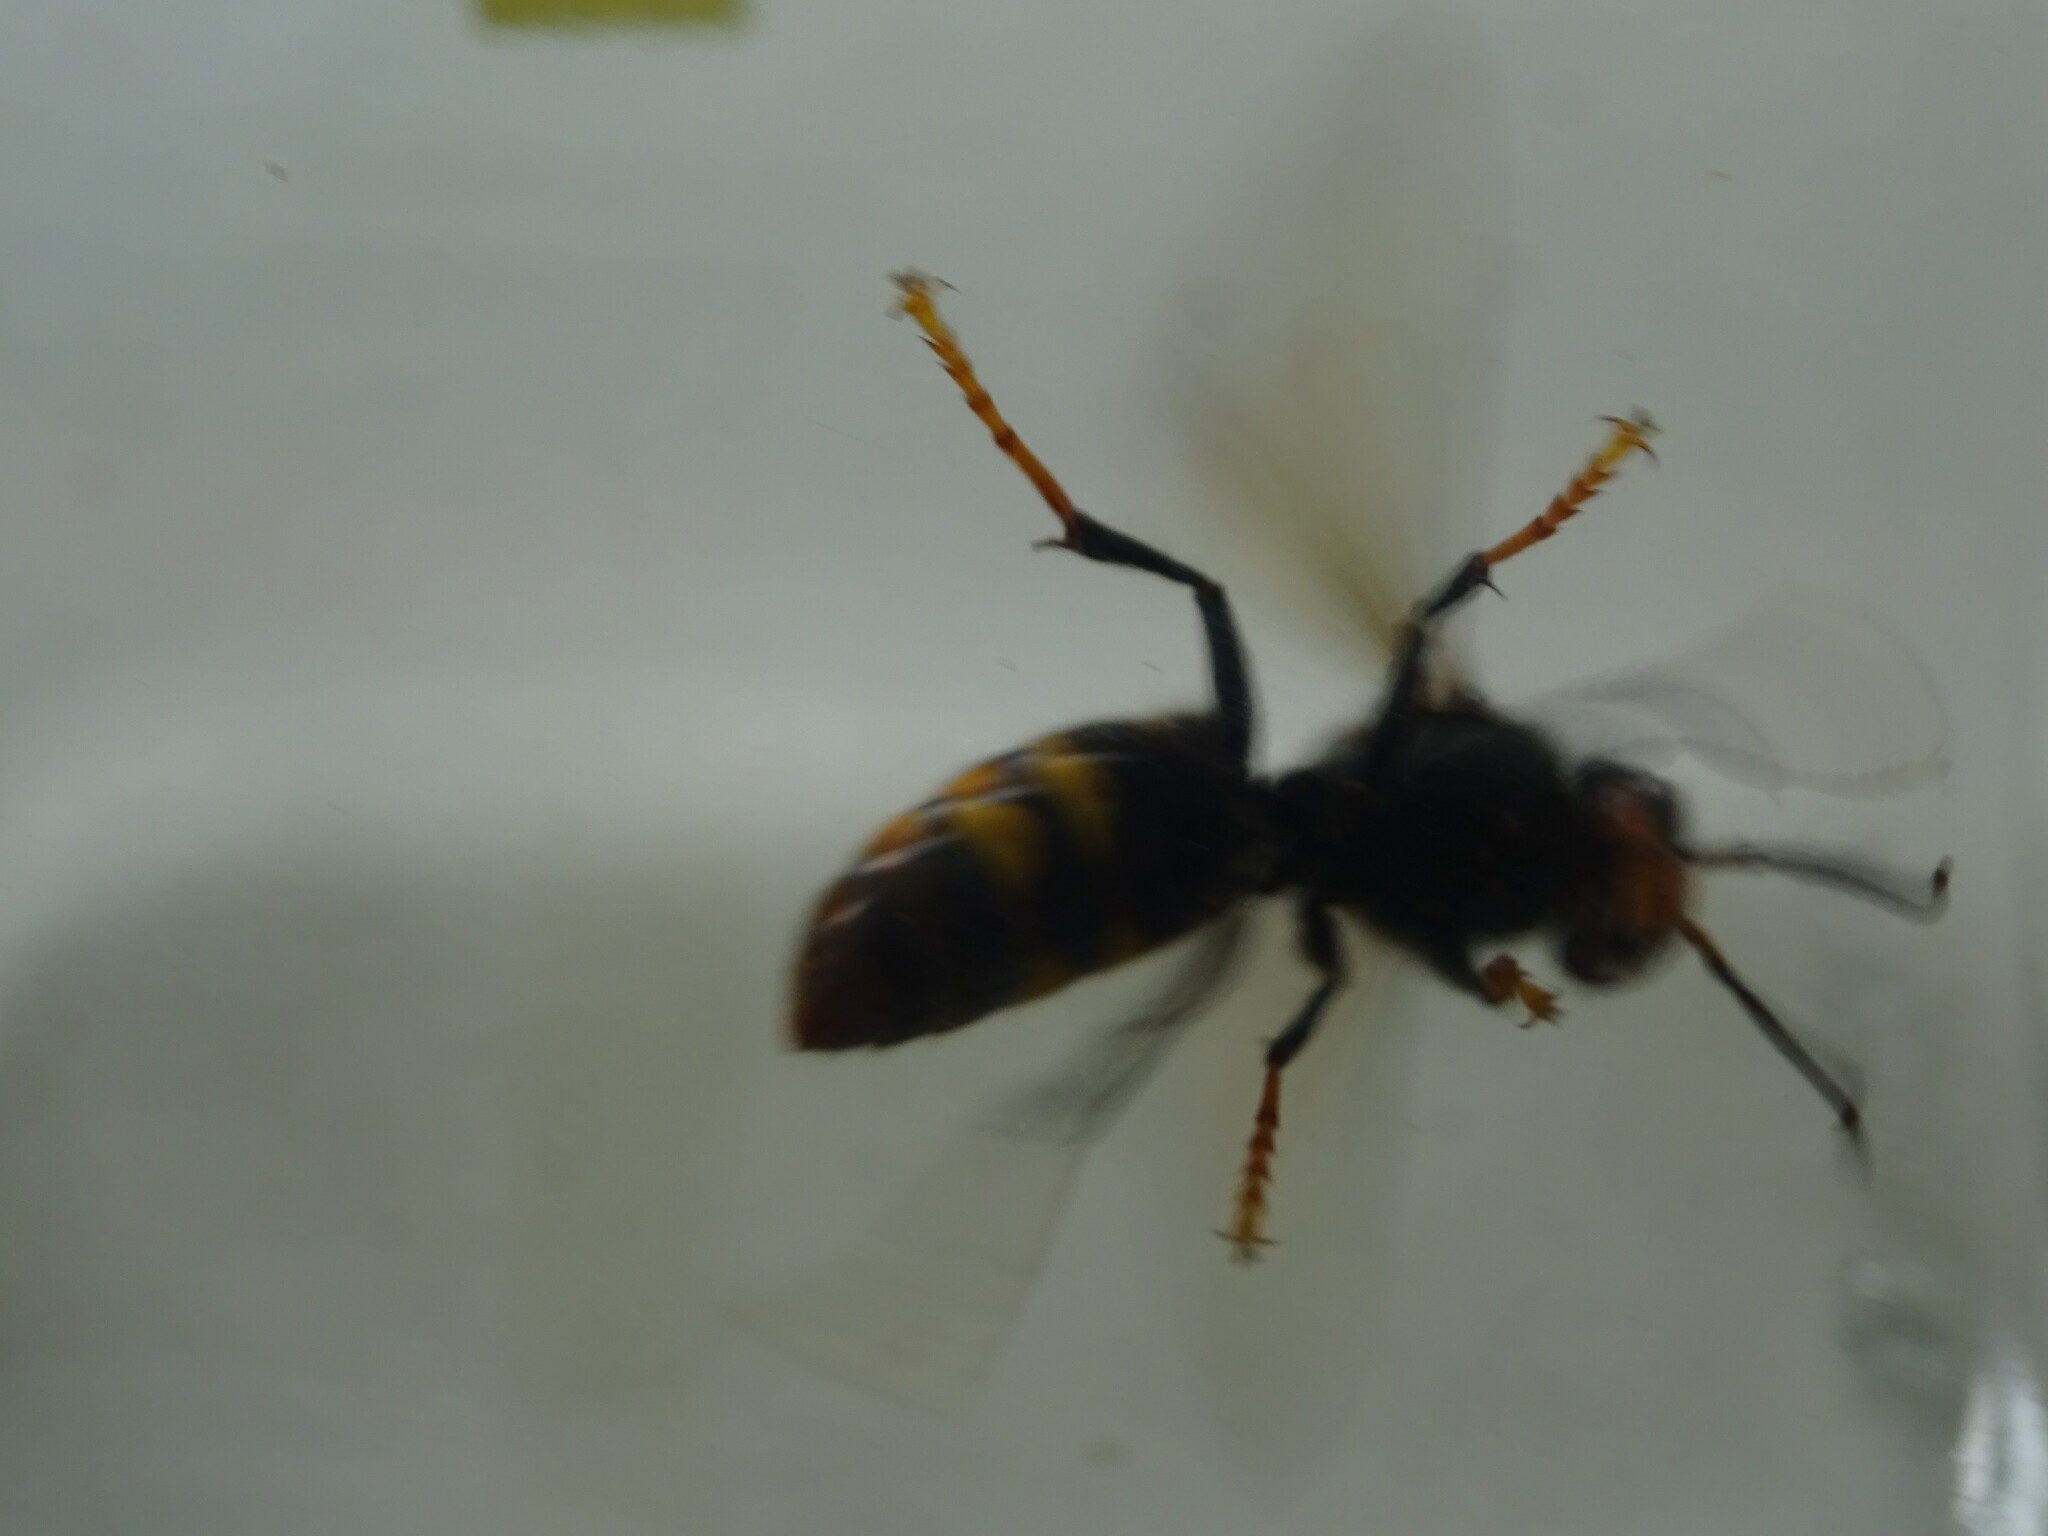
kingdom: Animalia
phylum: Arthropoda
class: Insecta
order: Hymenoptera
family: Vespidae
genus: Vespa
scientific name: Vespa velutina
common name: Asian hornet
